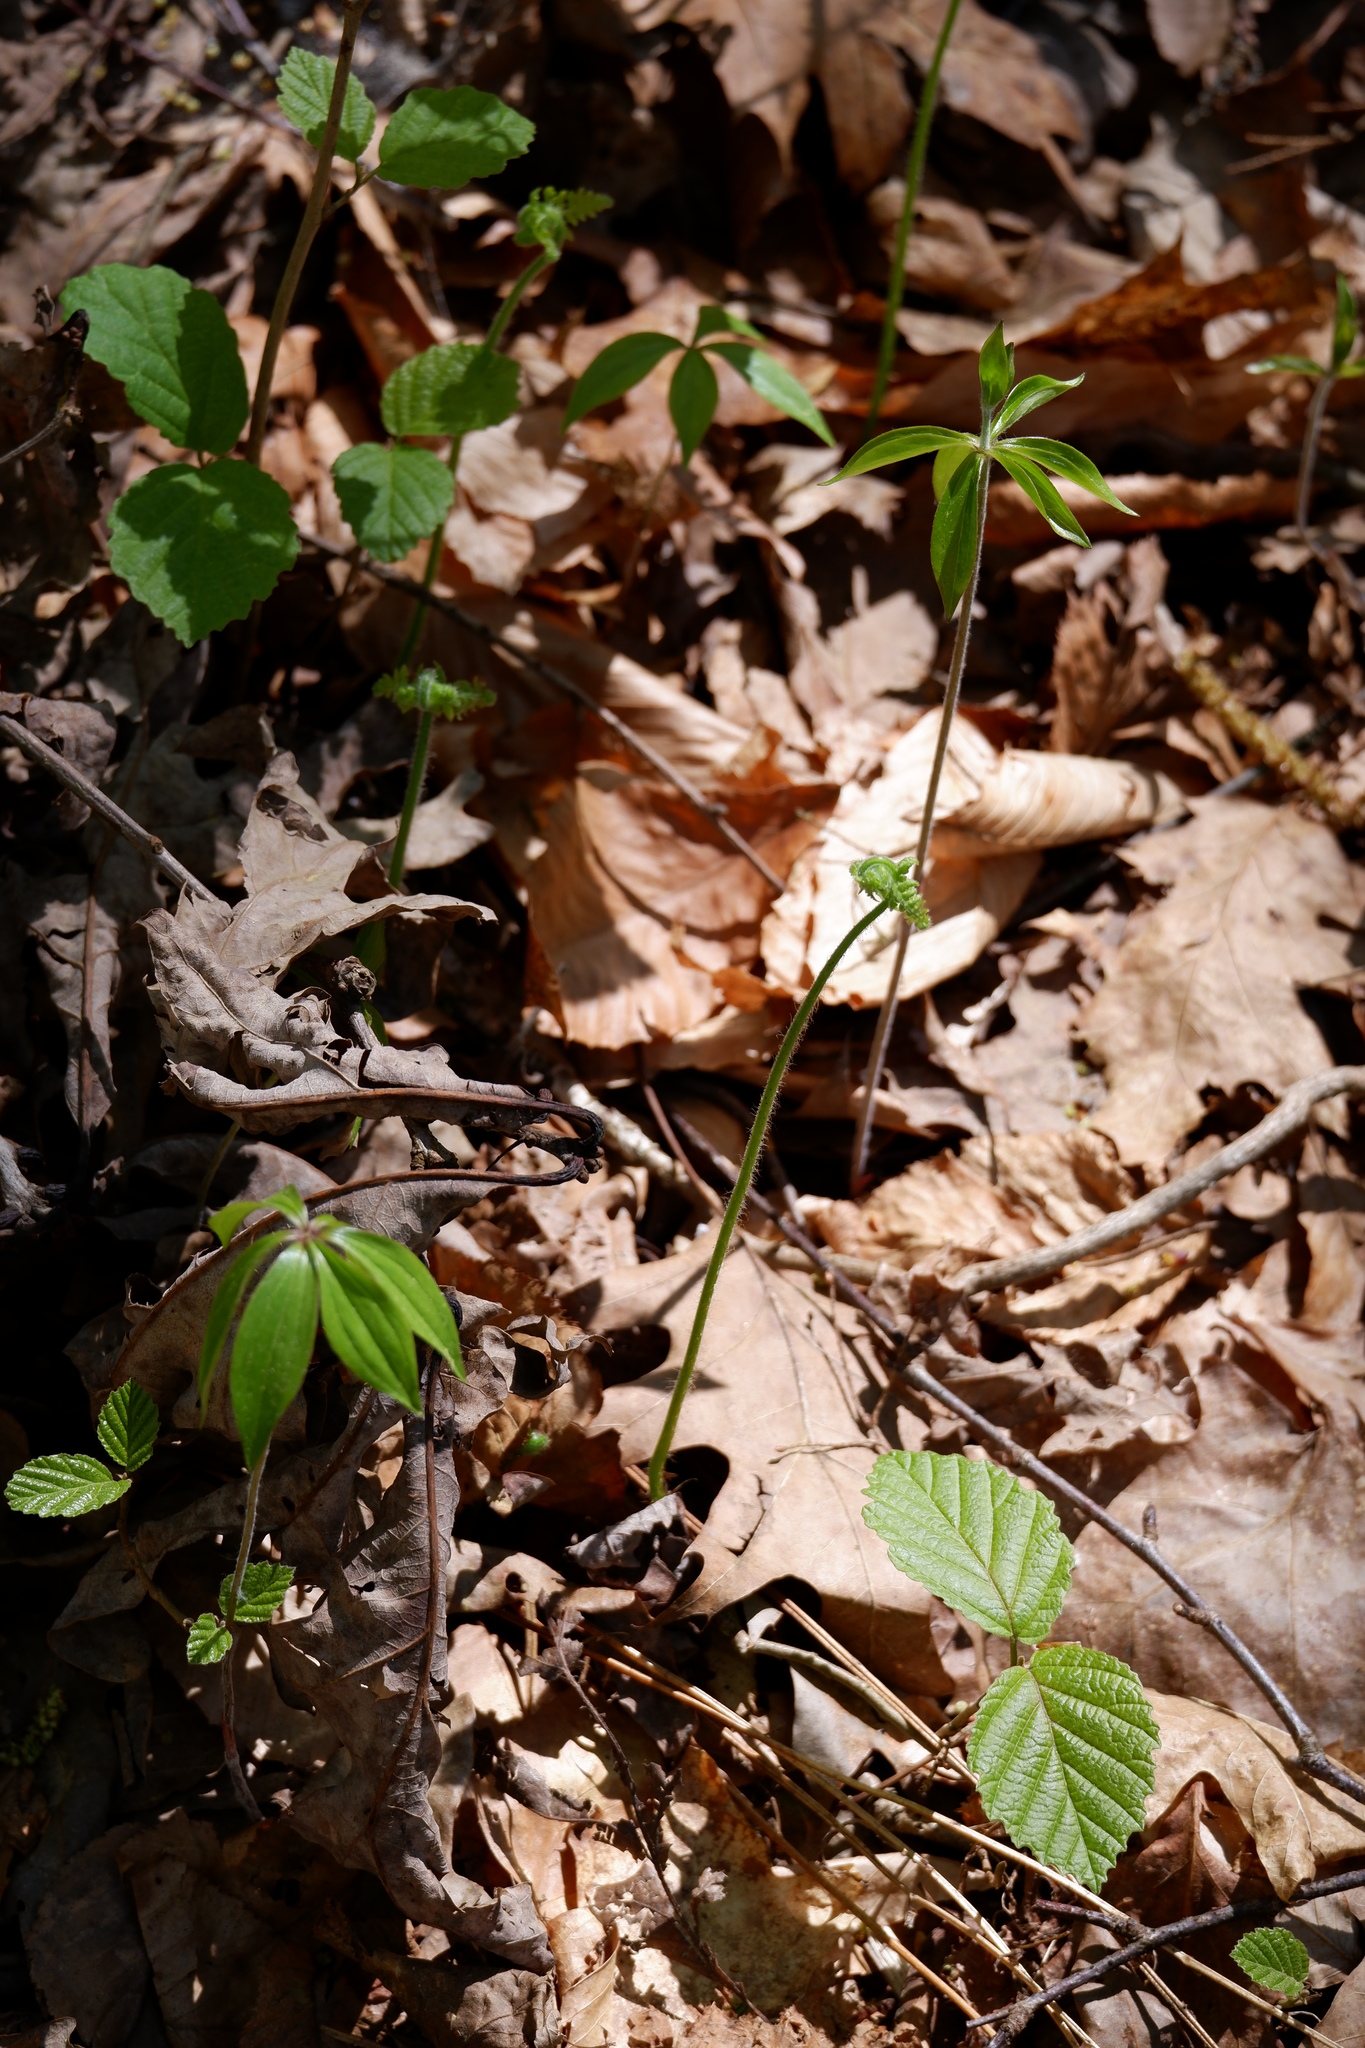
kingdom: Plantae
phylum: Tracheophyta
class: Liliopsida
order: Liliales
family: Liliaceae
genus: Medeola
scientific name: Medeola virginiana
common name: Indian cucumber-root
